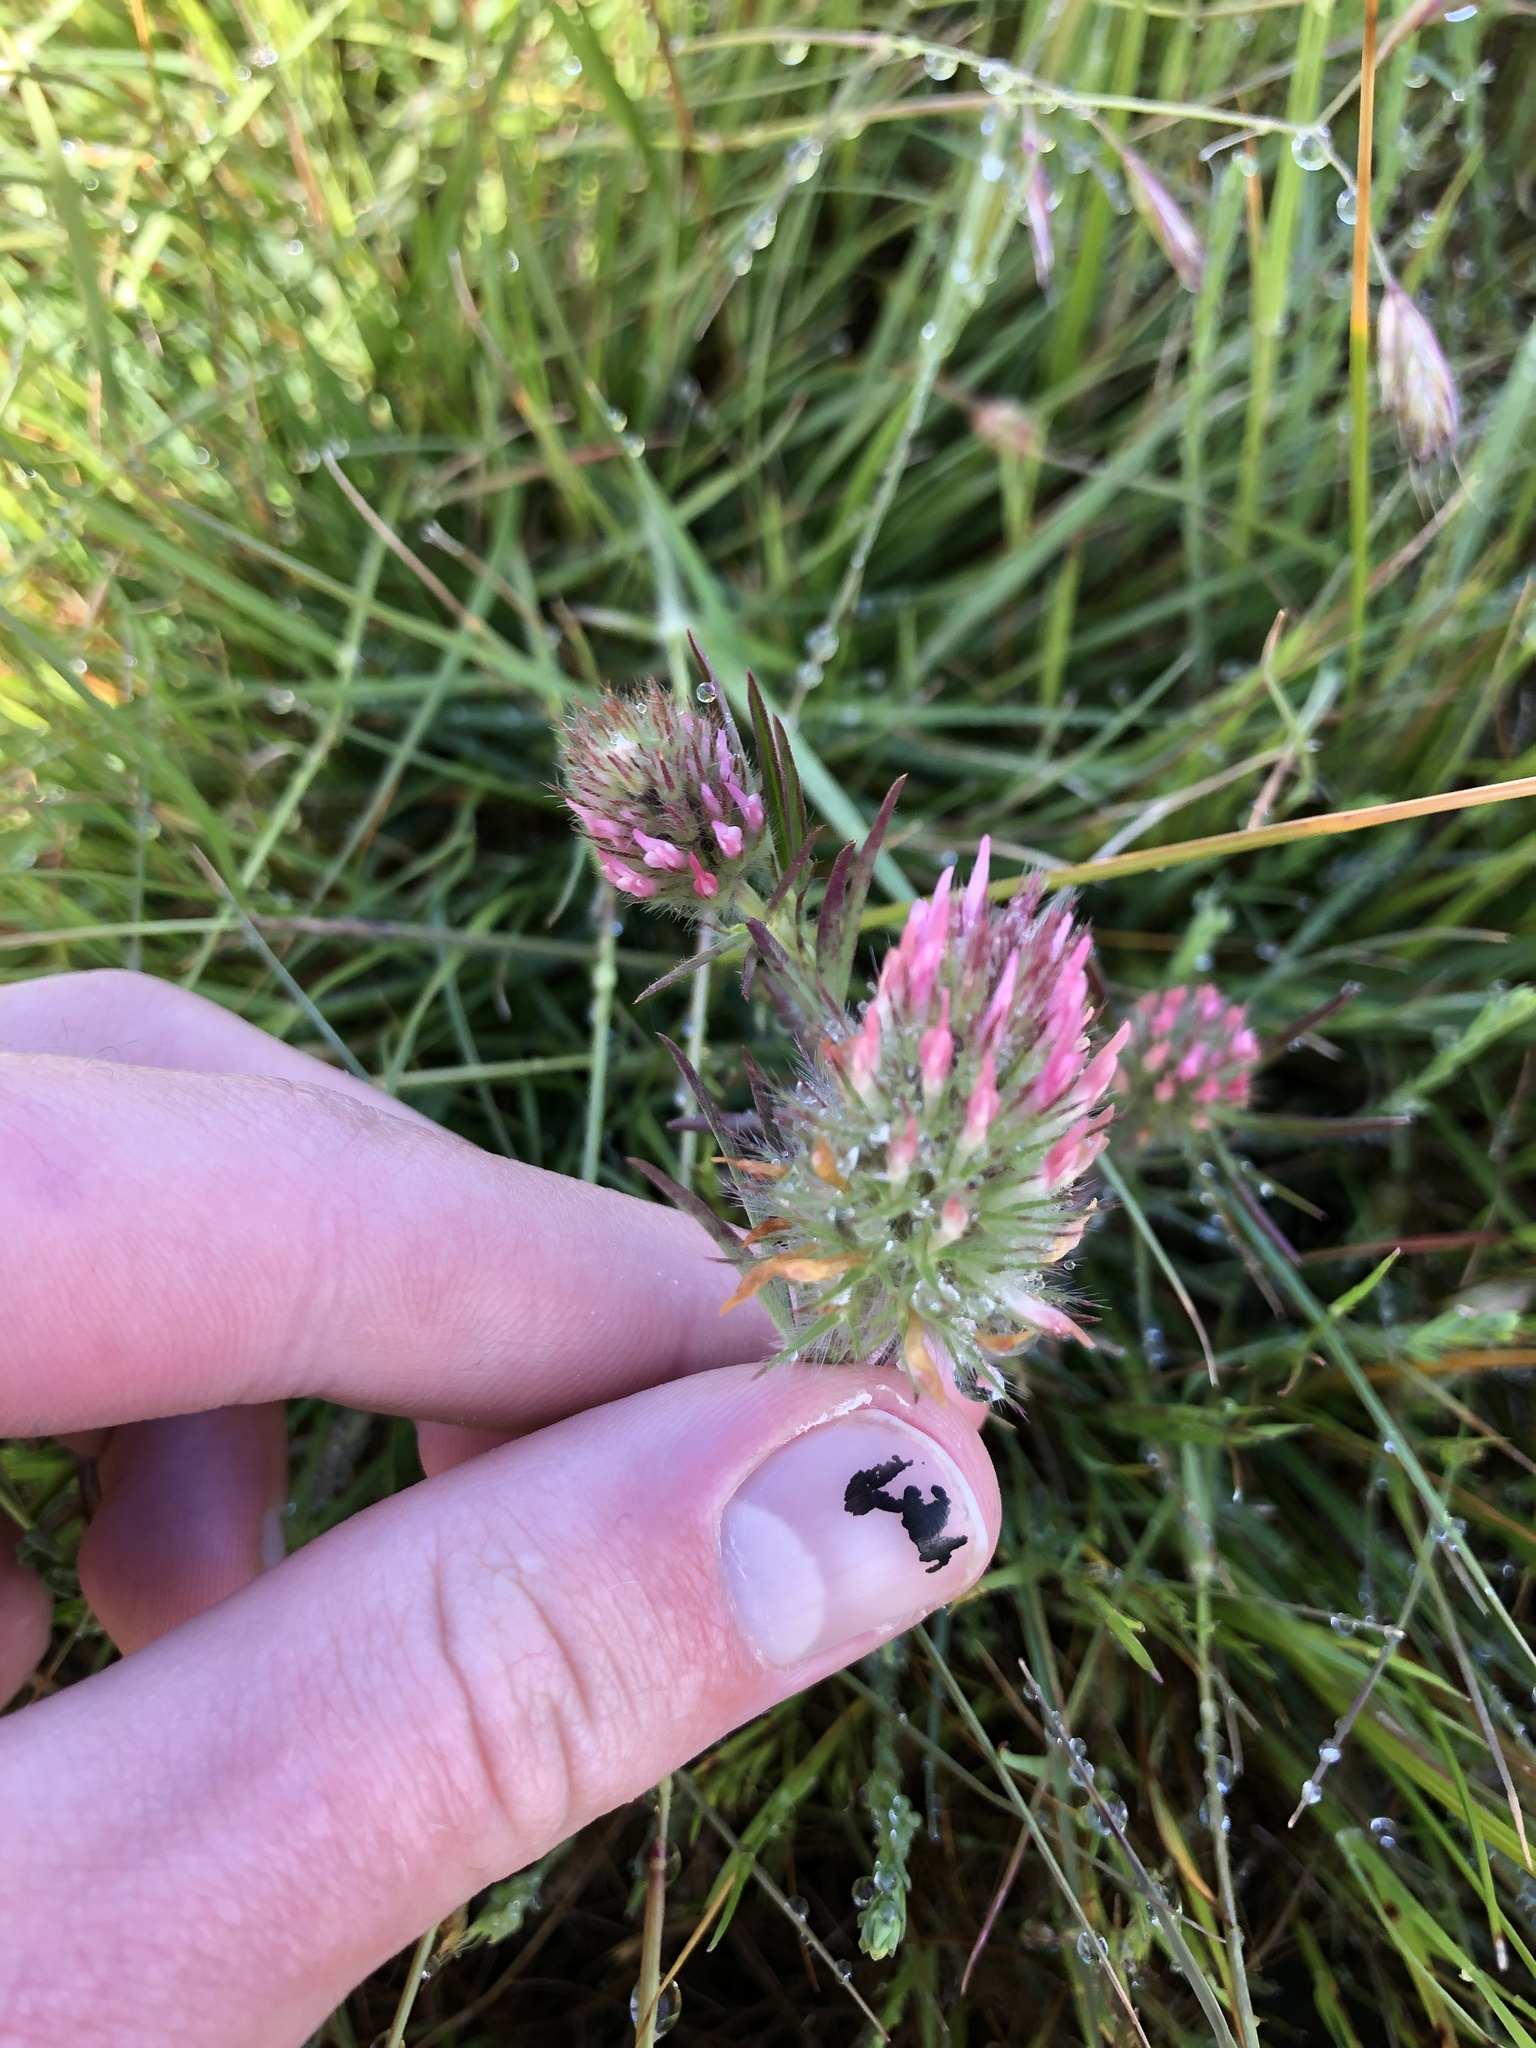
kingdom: Plantae
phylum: Tracheophyta
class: Magnoliopsida
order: Fabales
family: Fabaceae
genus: Trifolium
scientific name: Trifolium angustifolium
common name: Narrow clover
